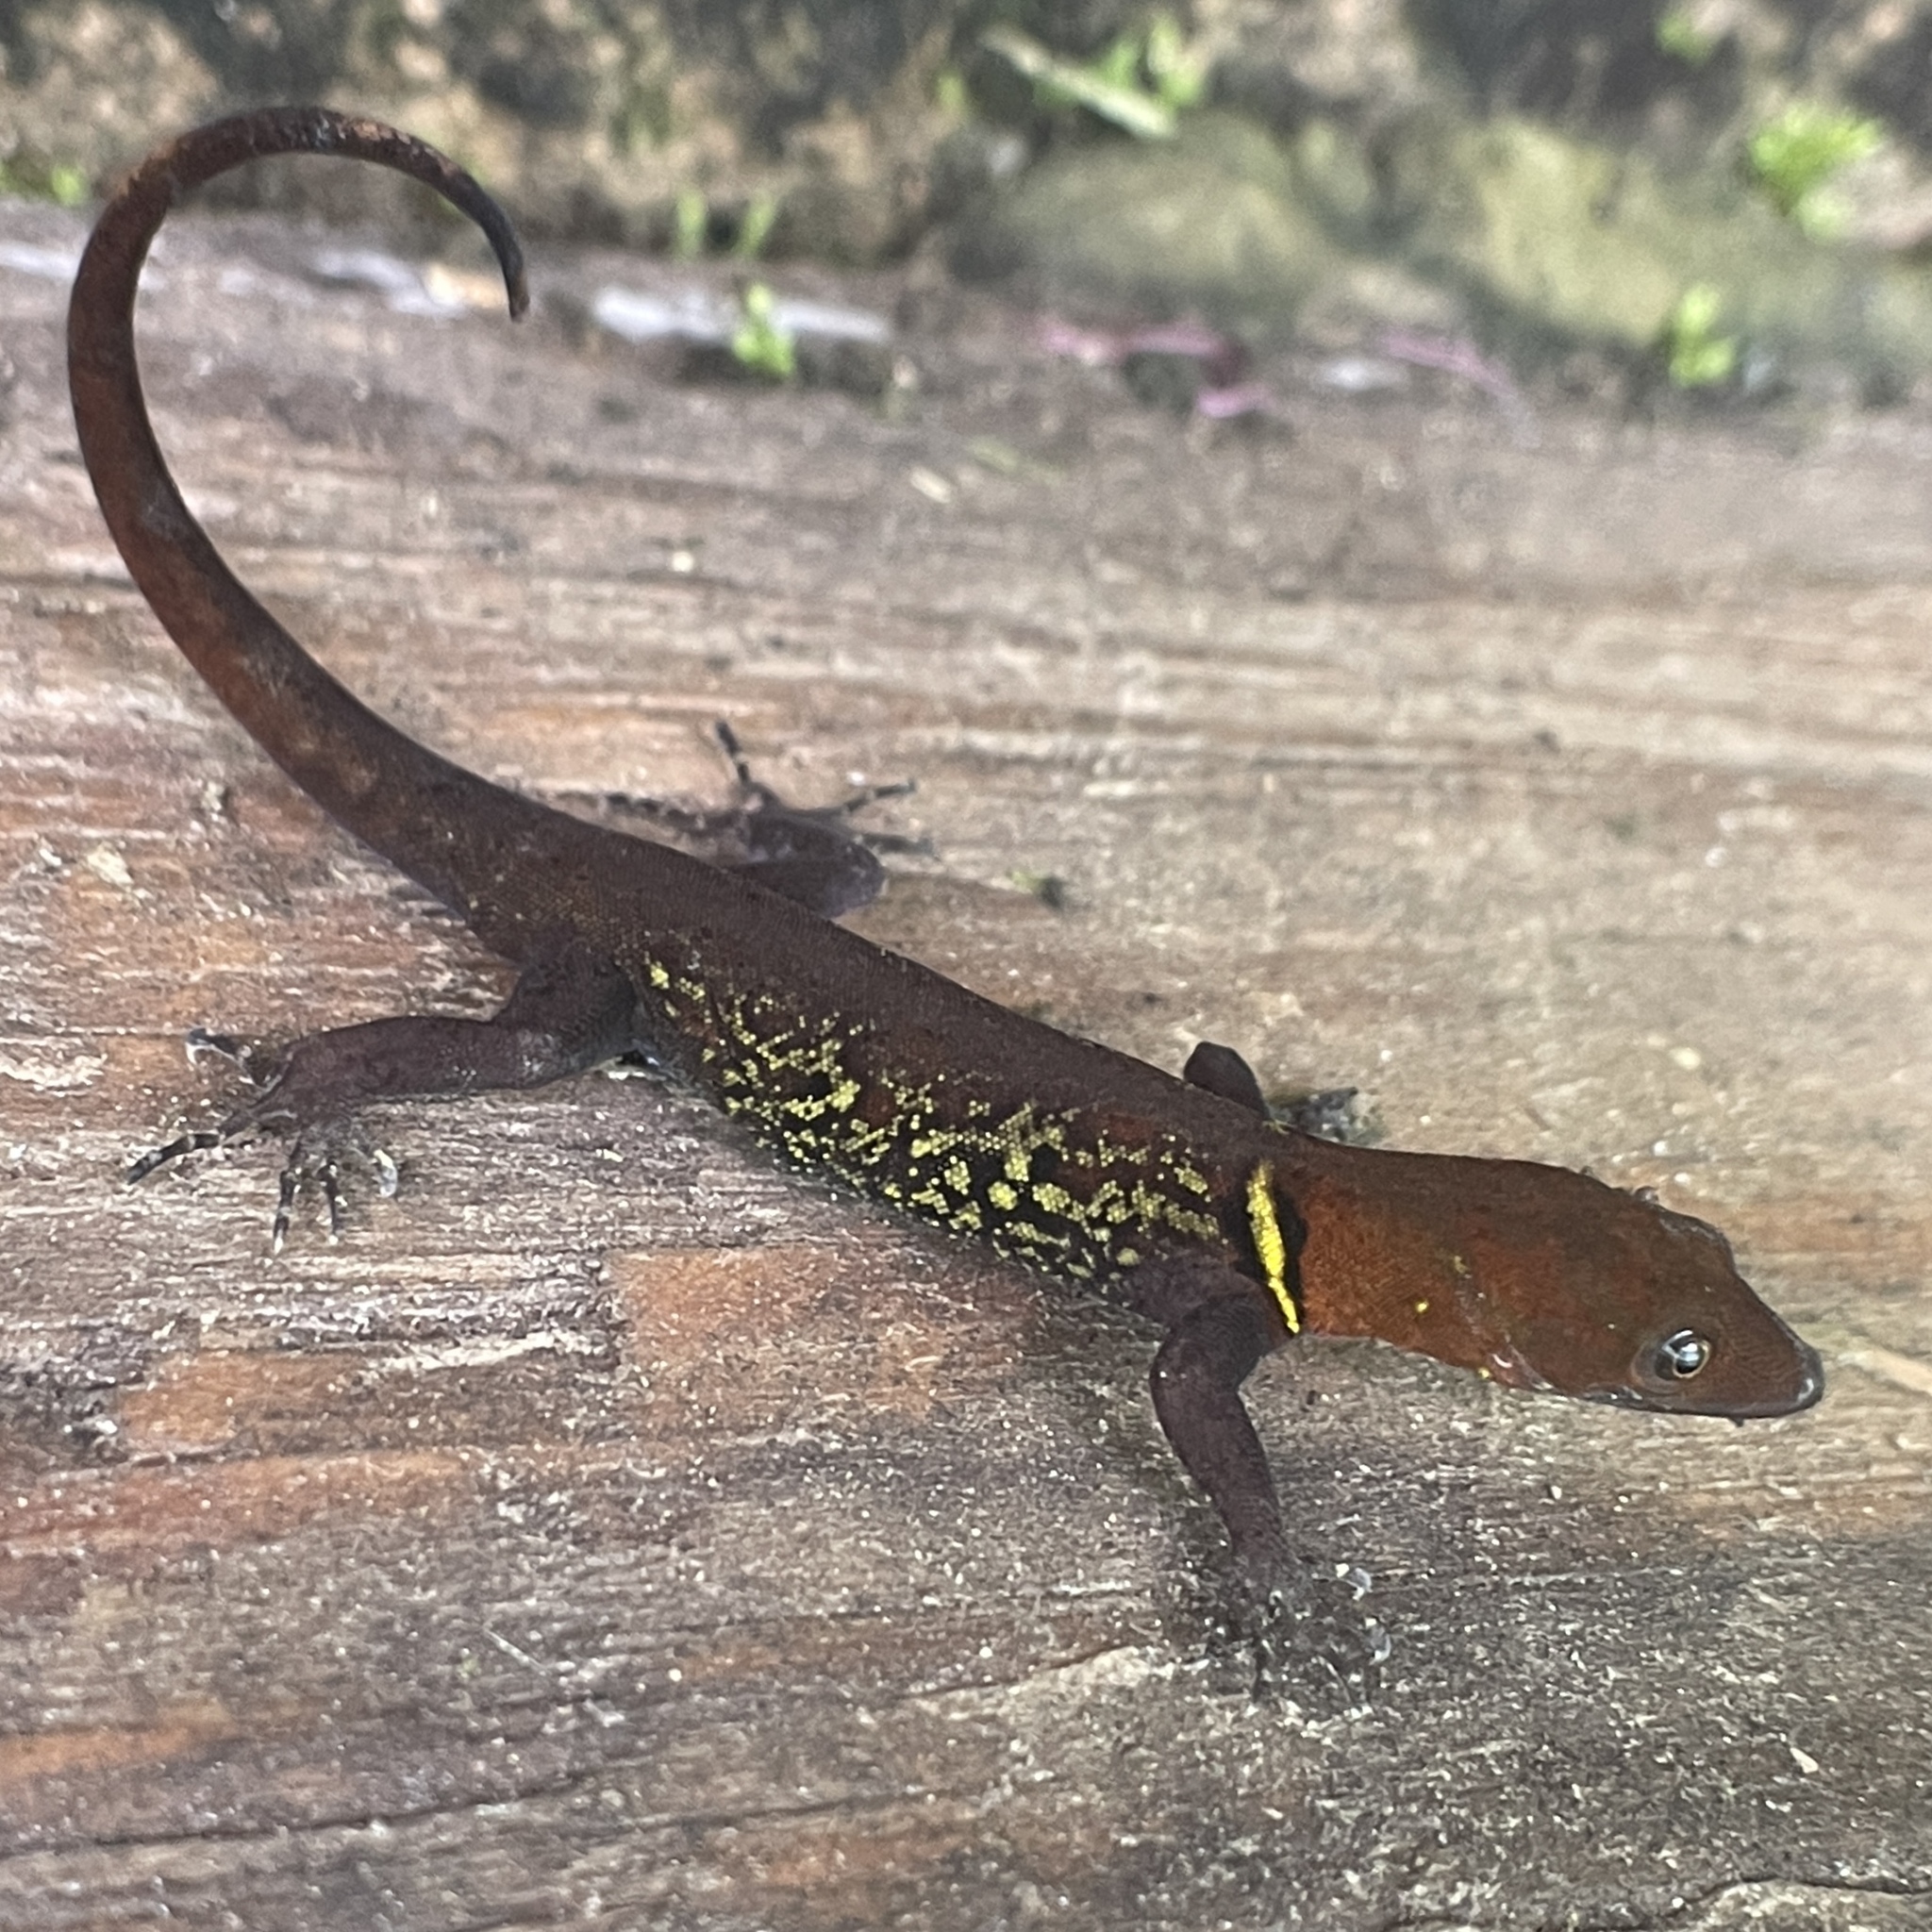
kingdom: Animalia
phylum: Chordata
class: Squamata
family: Sphaerodactylidae
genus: Gonatodes
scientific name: Gonatodes ceciliae
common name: Brilliant south american gecko
